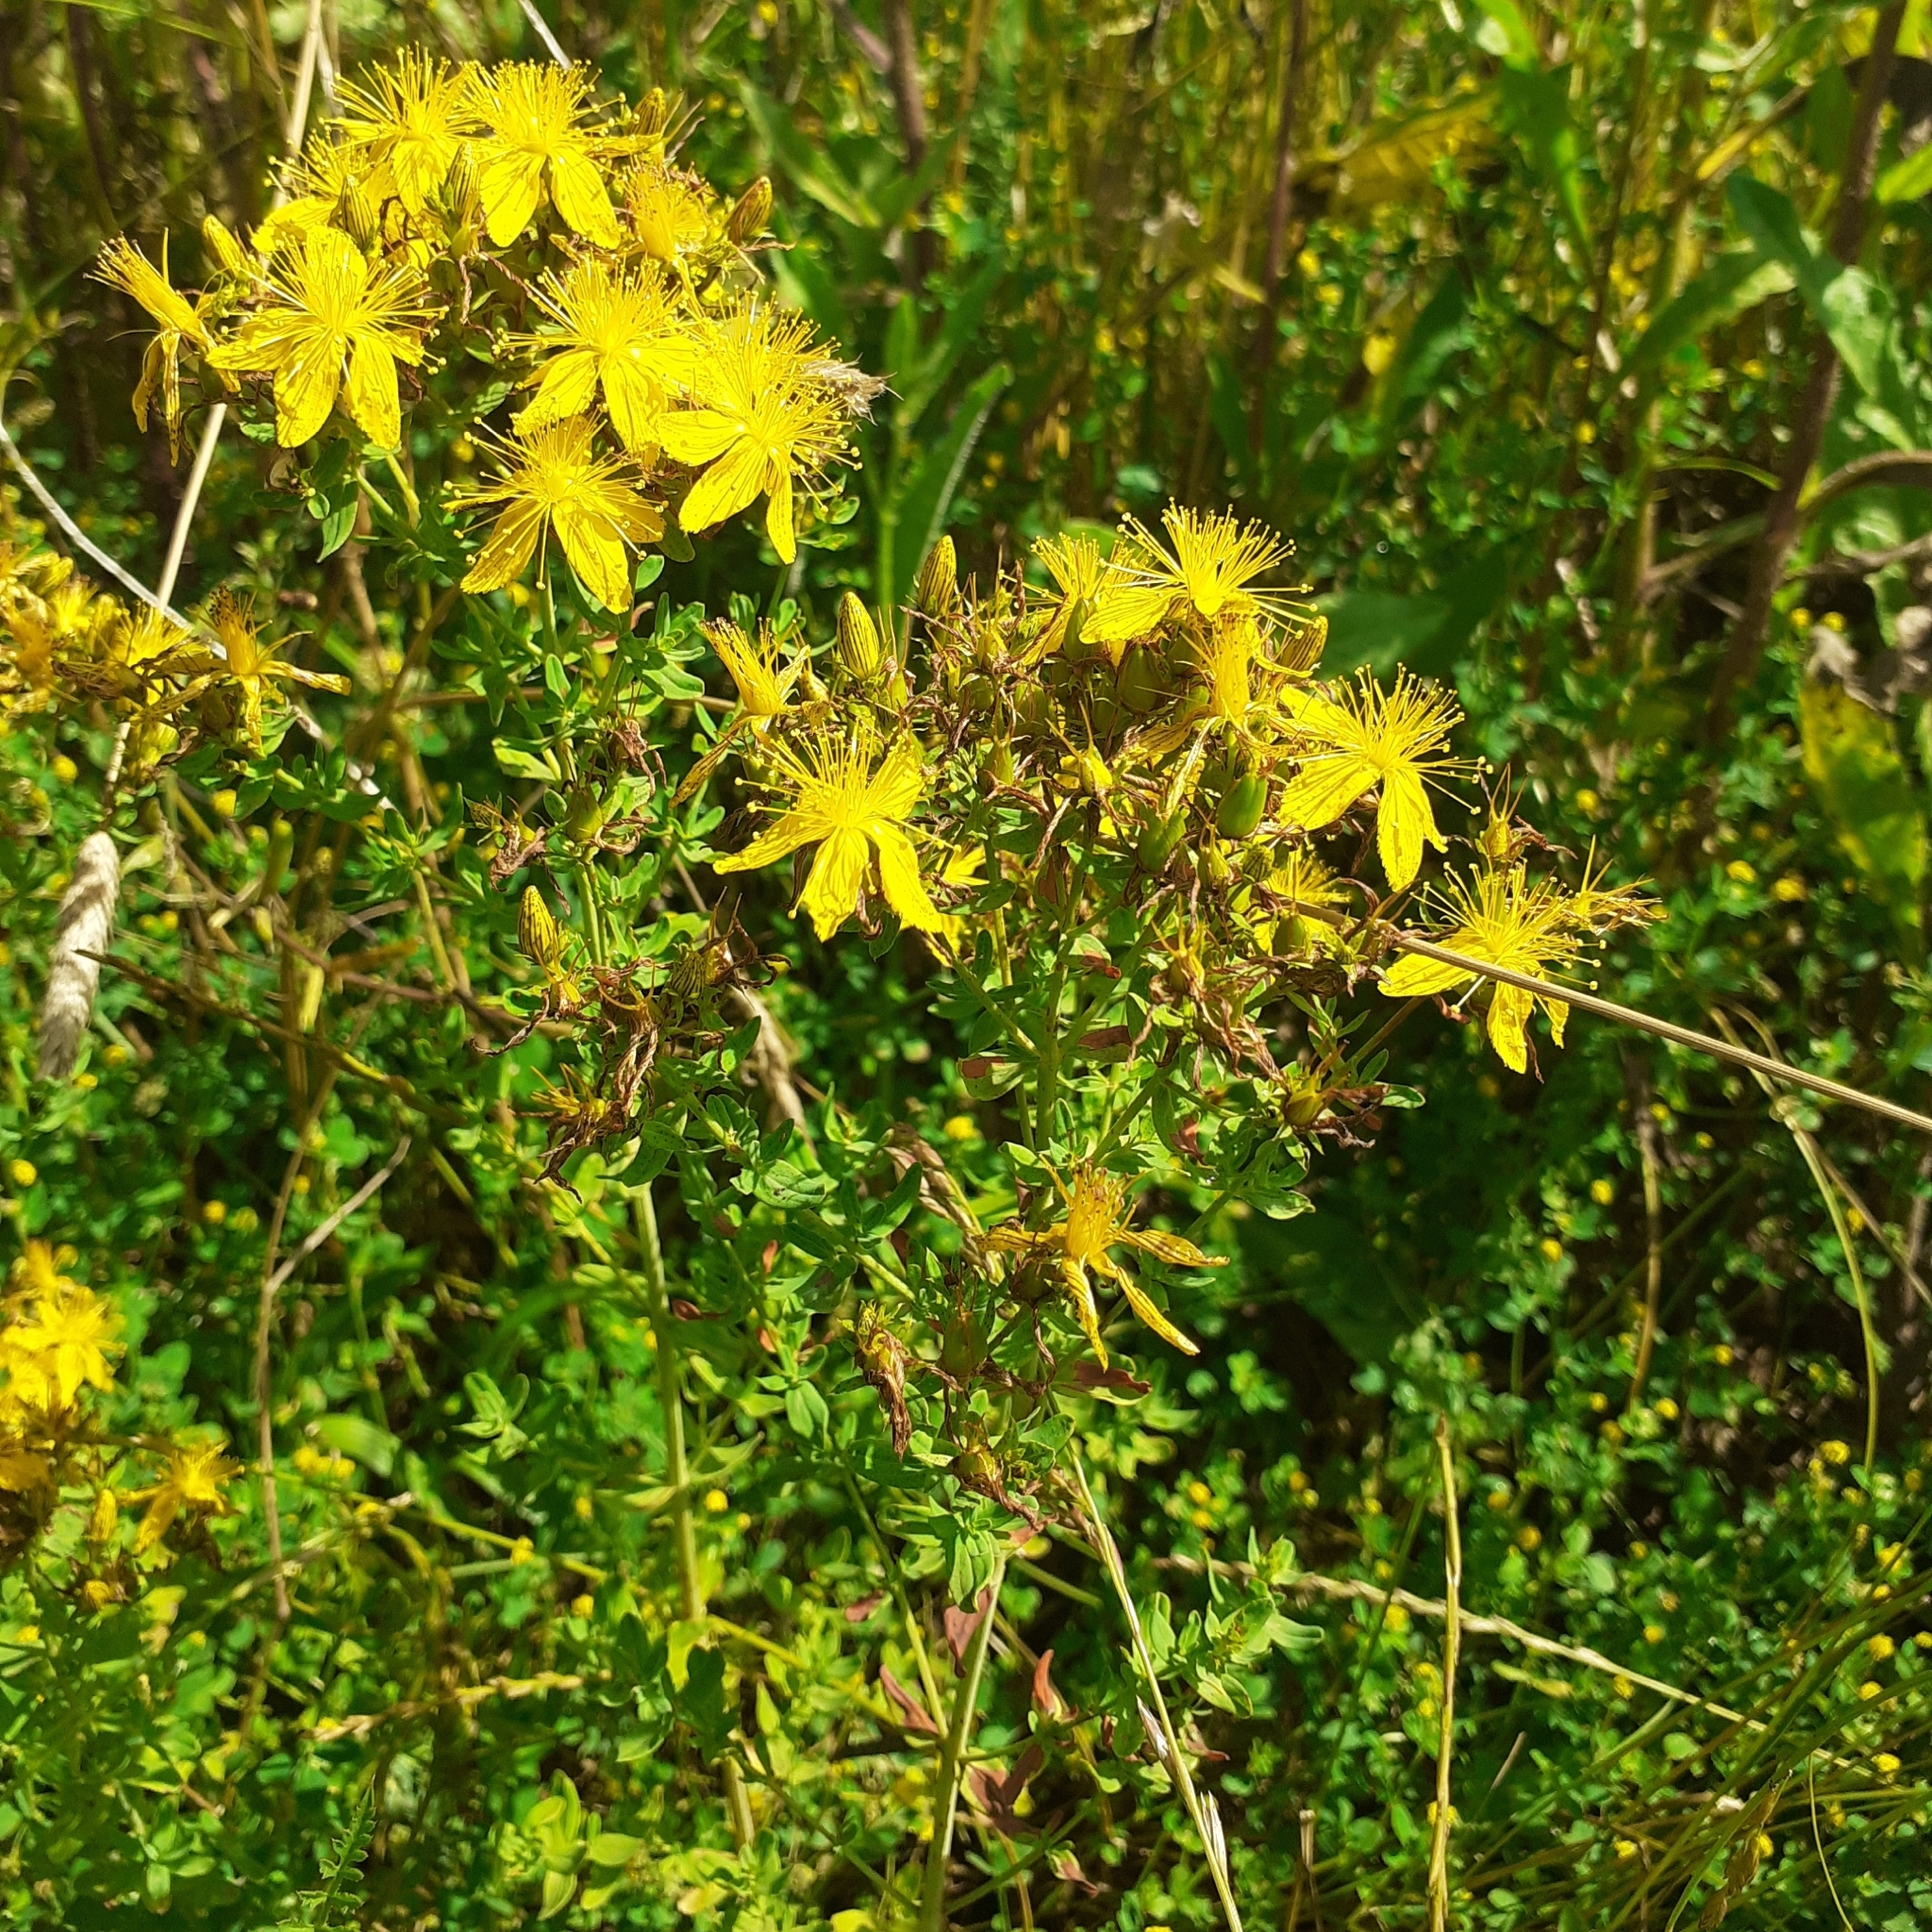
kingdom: Plantae
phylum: Tracheophyta
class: Magnoliopsida
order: Malpighiales
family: Hypericaceae
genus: Hypericum
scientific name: Hypericum perforatum
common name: Common st. johnswort
